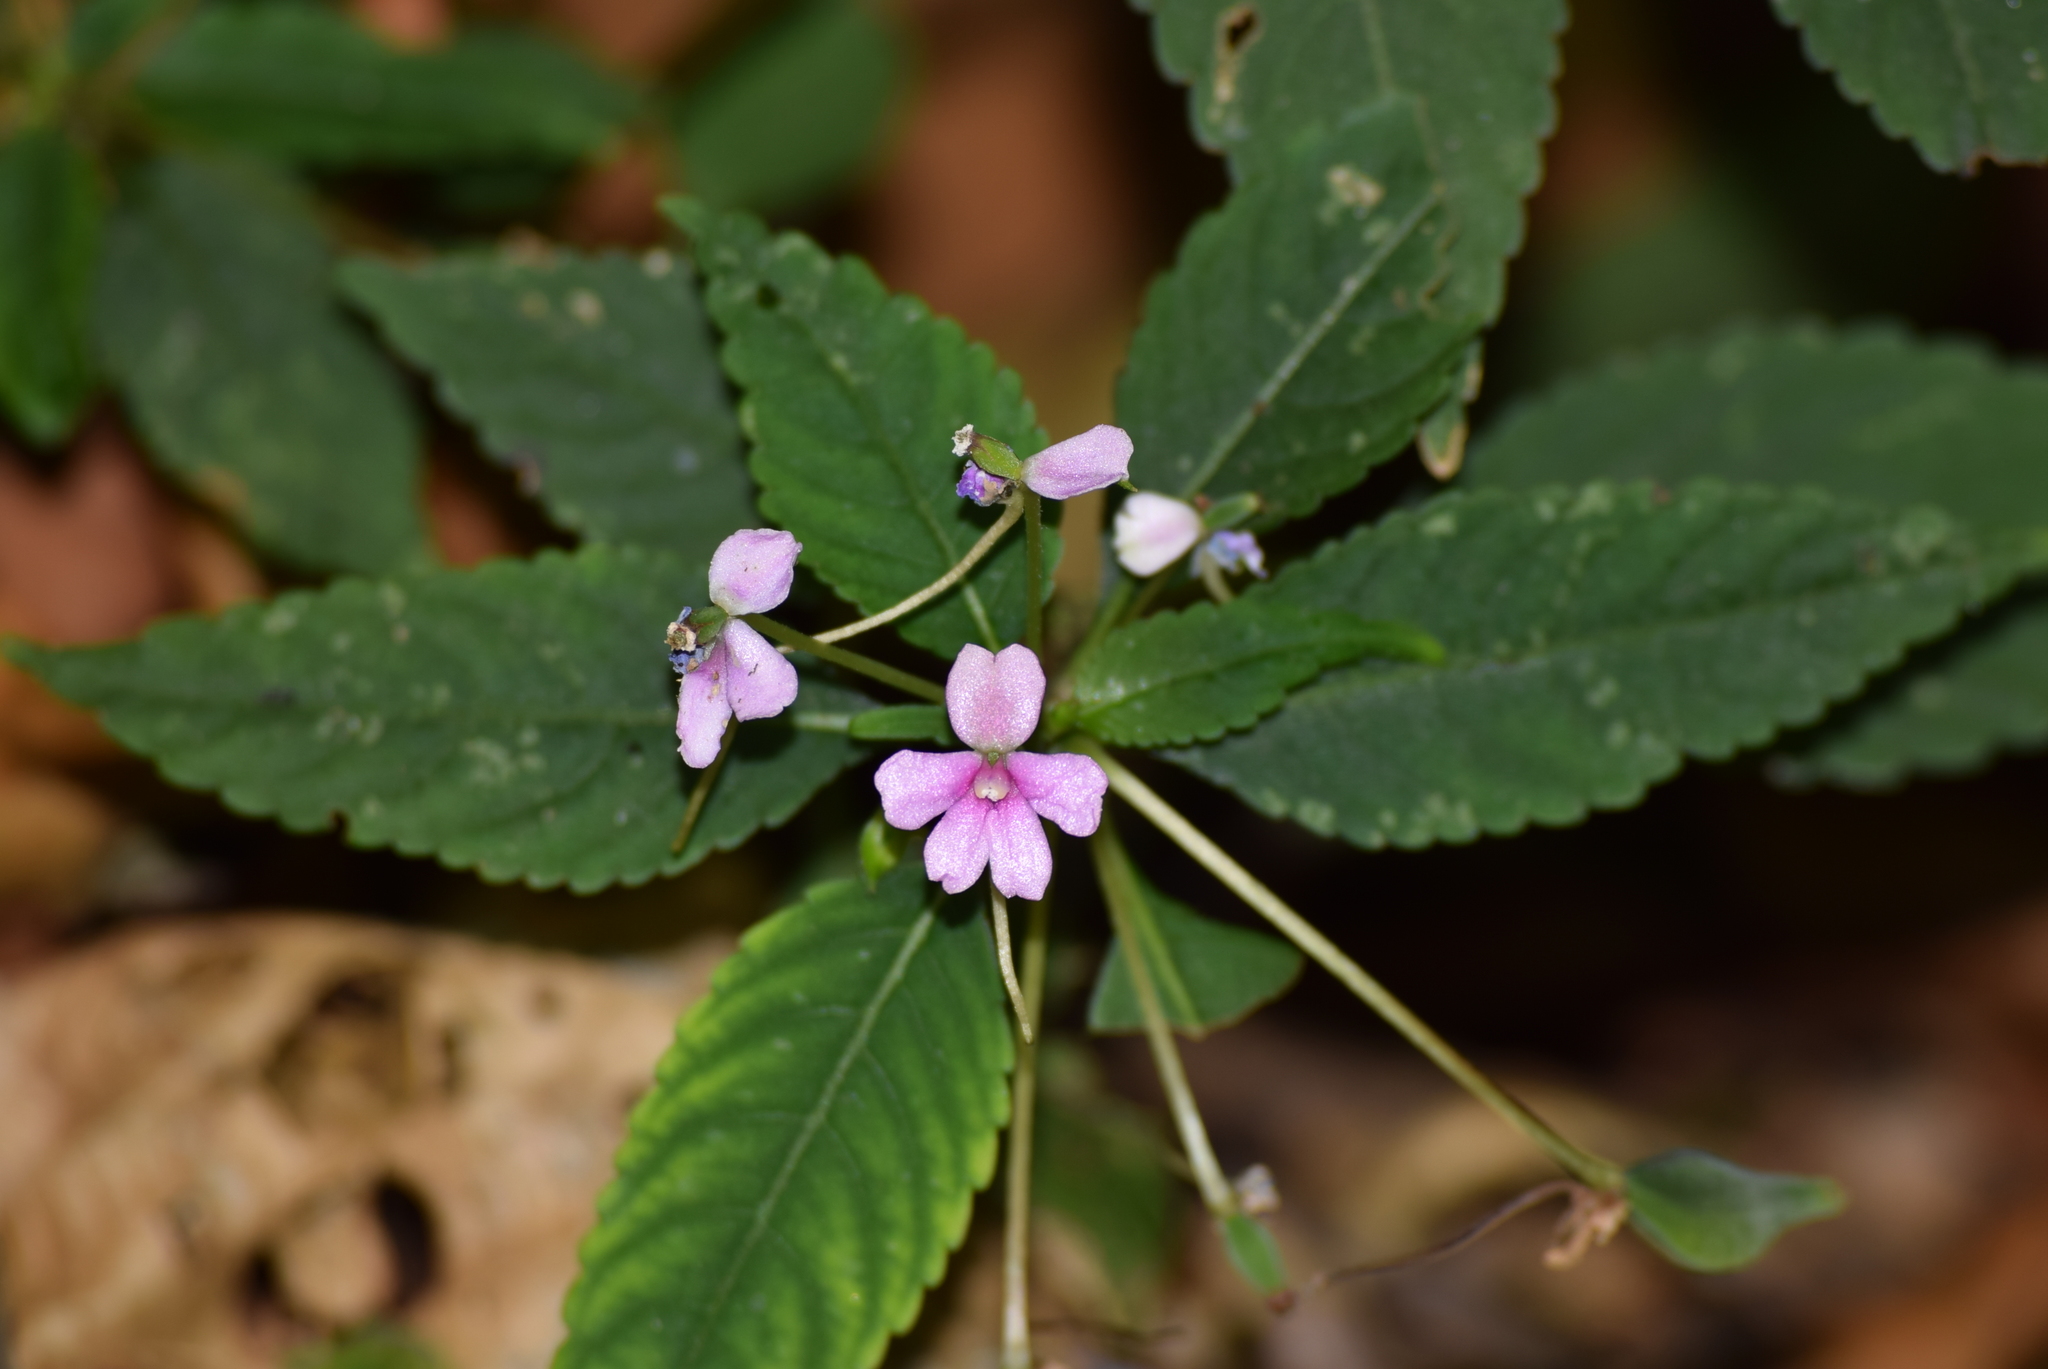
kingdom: Plantae
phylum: Tracheophyta
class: Magnoliopsida
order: Ericales
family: Balsaminaceae
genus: Impatiens
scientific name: Impatiens dasysperma
